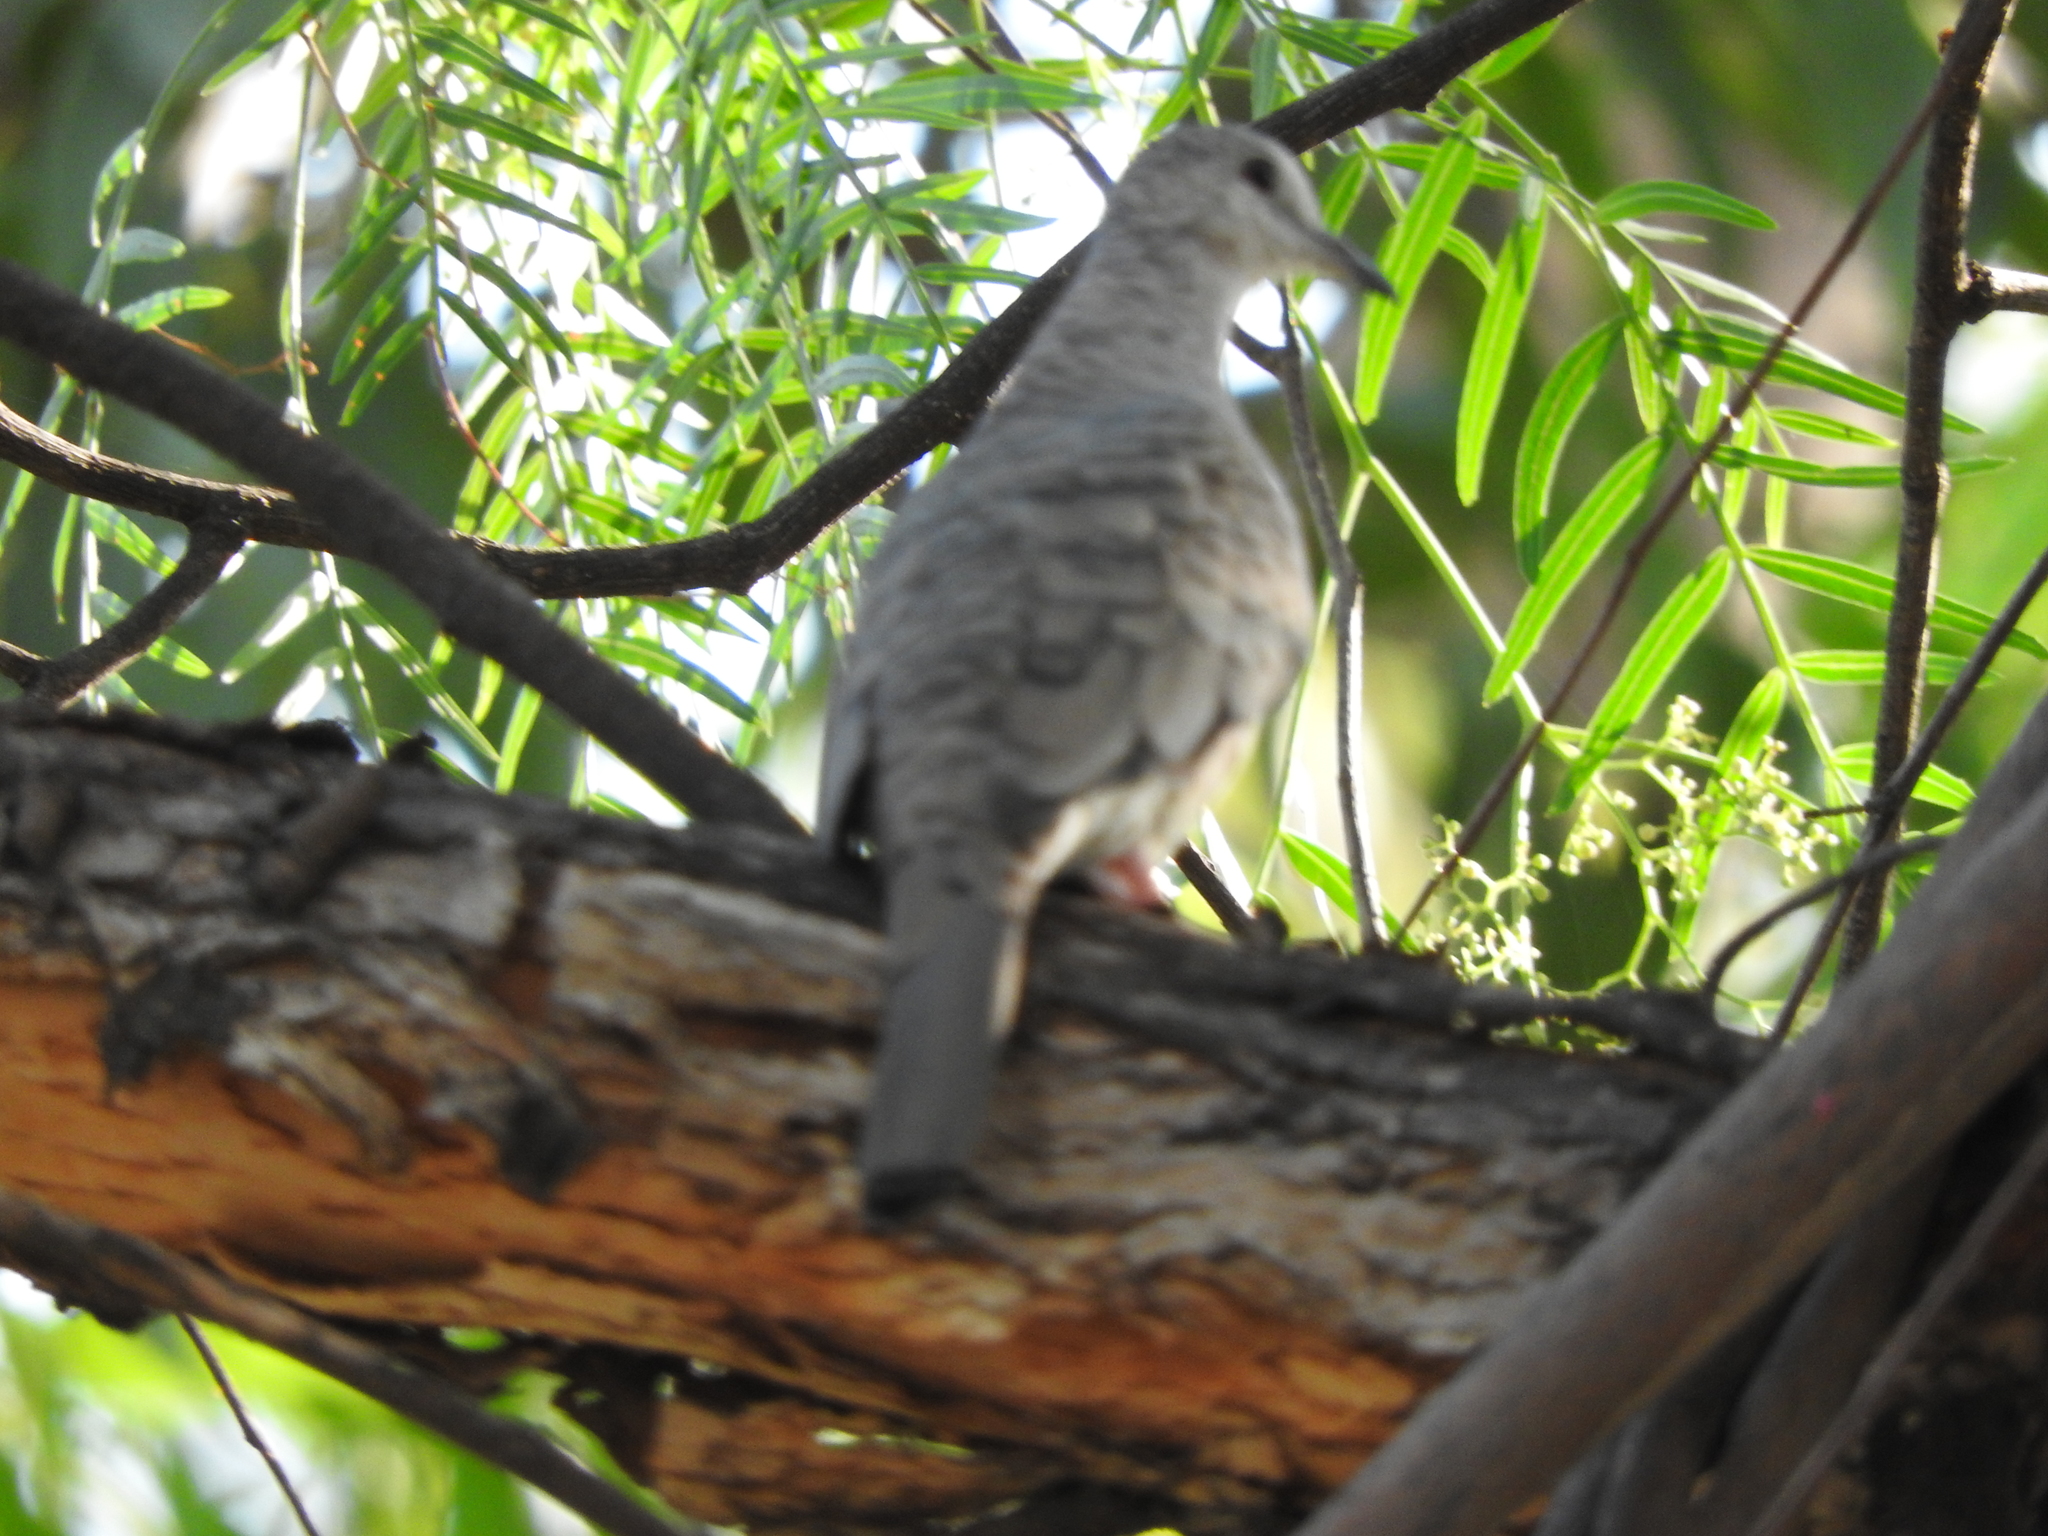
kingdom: Animalia
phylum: Chordata
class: Aves
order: Columbiformes
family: Columbidae
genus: Columbina
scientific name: Columbina inca
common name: Inca dove
